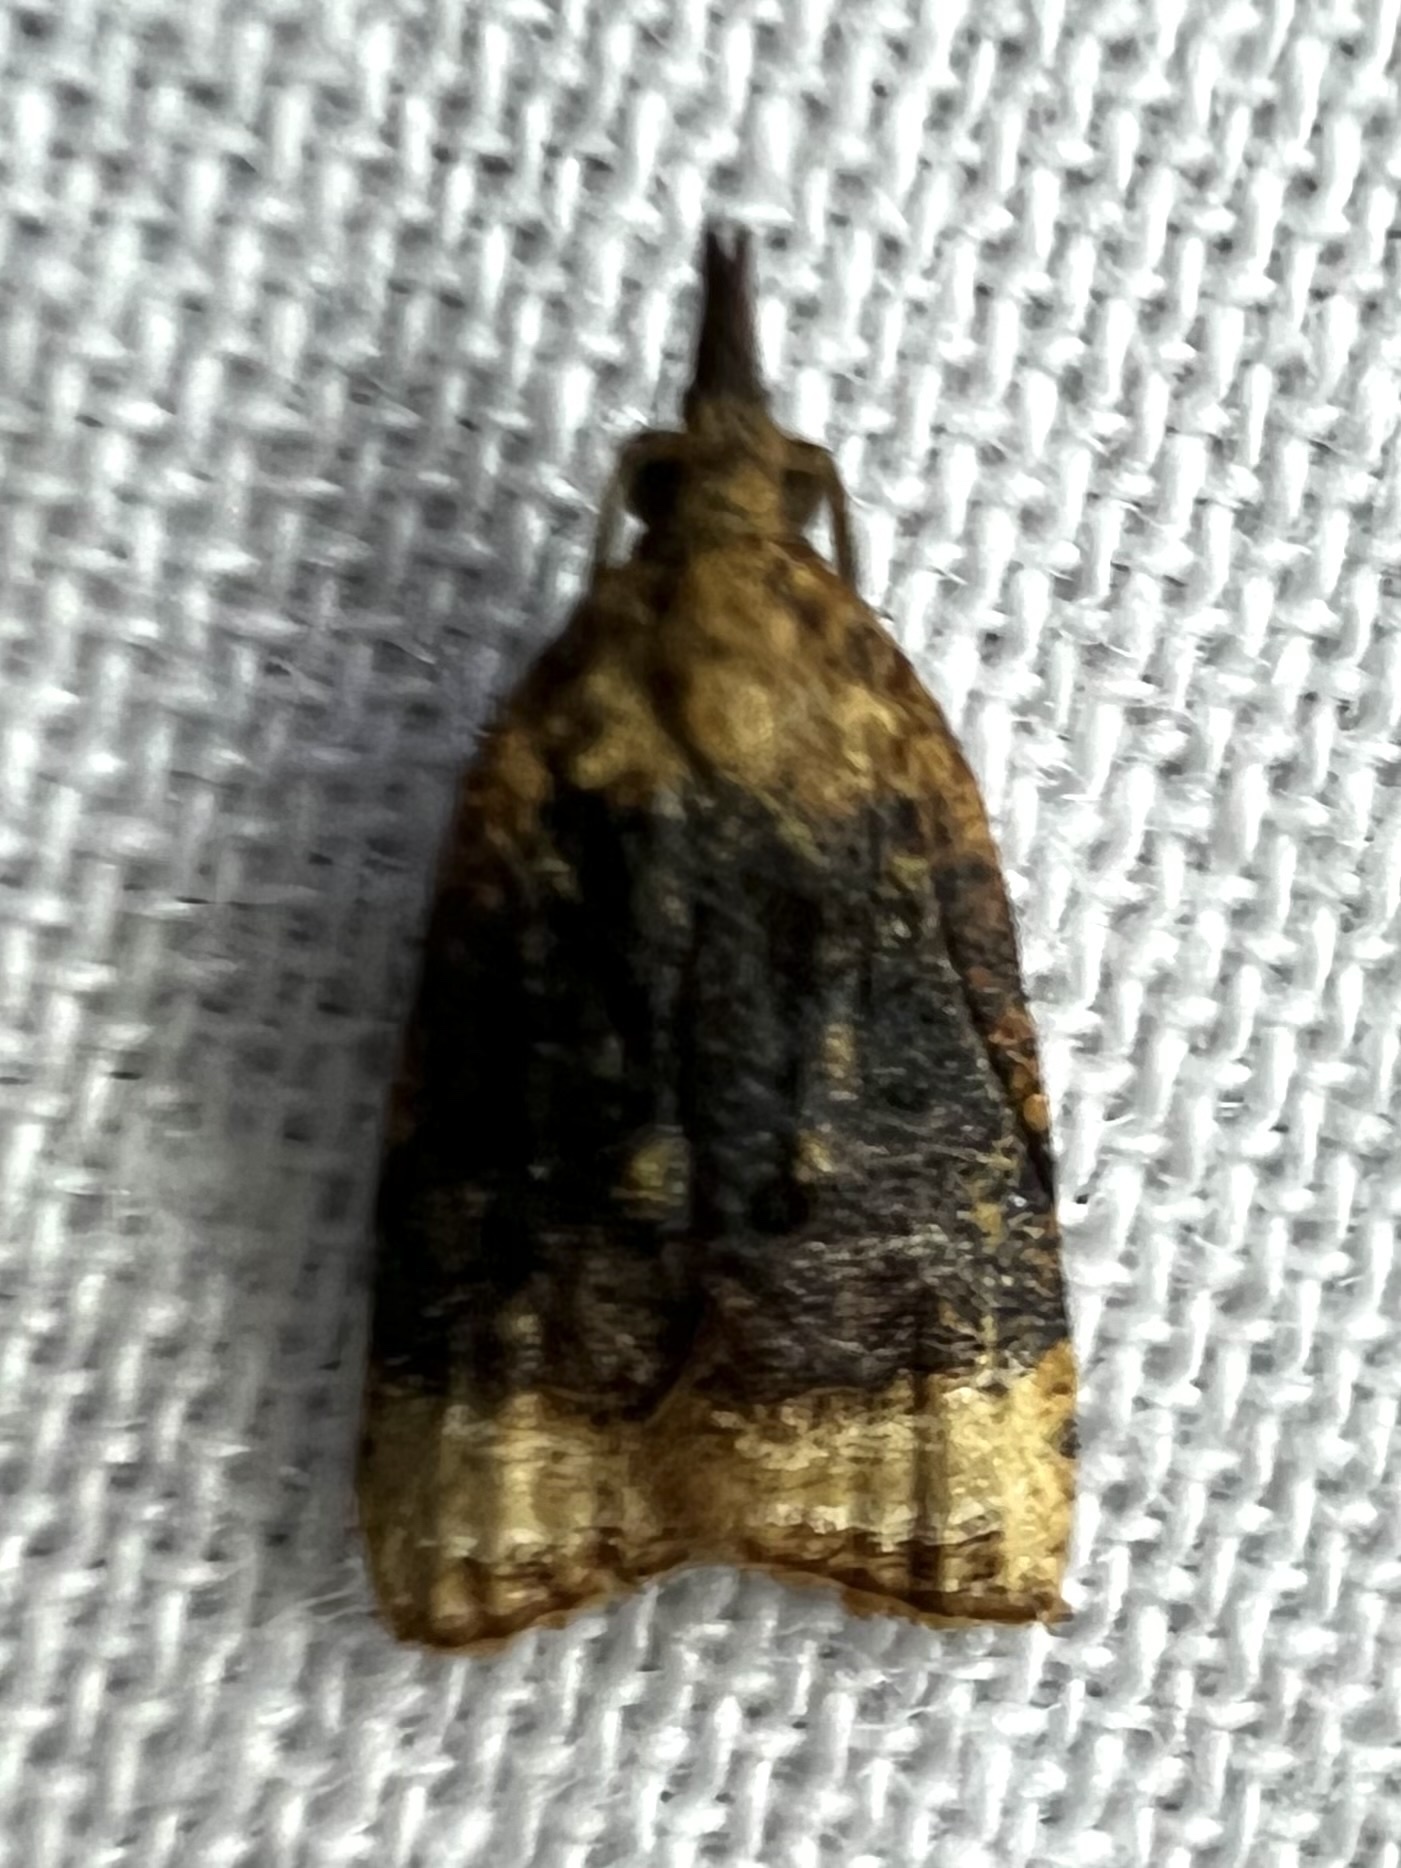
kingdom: Animalia
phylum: Arthropoda
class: Insecta
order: Lepidoptera
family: Tortricidae
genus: Platynota
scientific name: Platynota flavedana
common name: Black-shaded platynota moth
